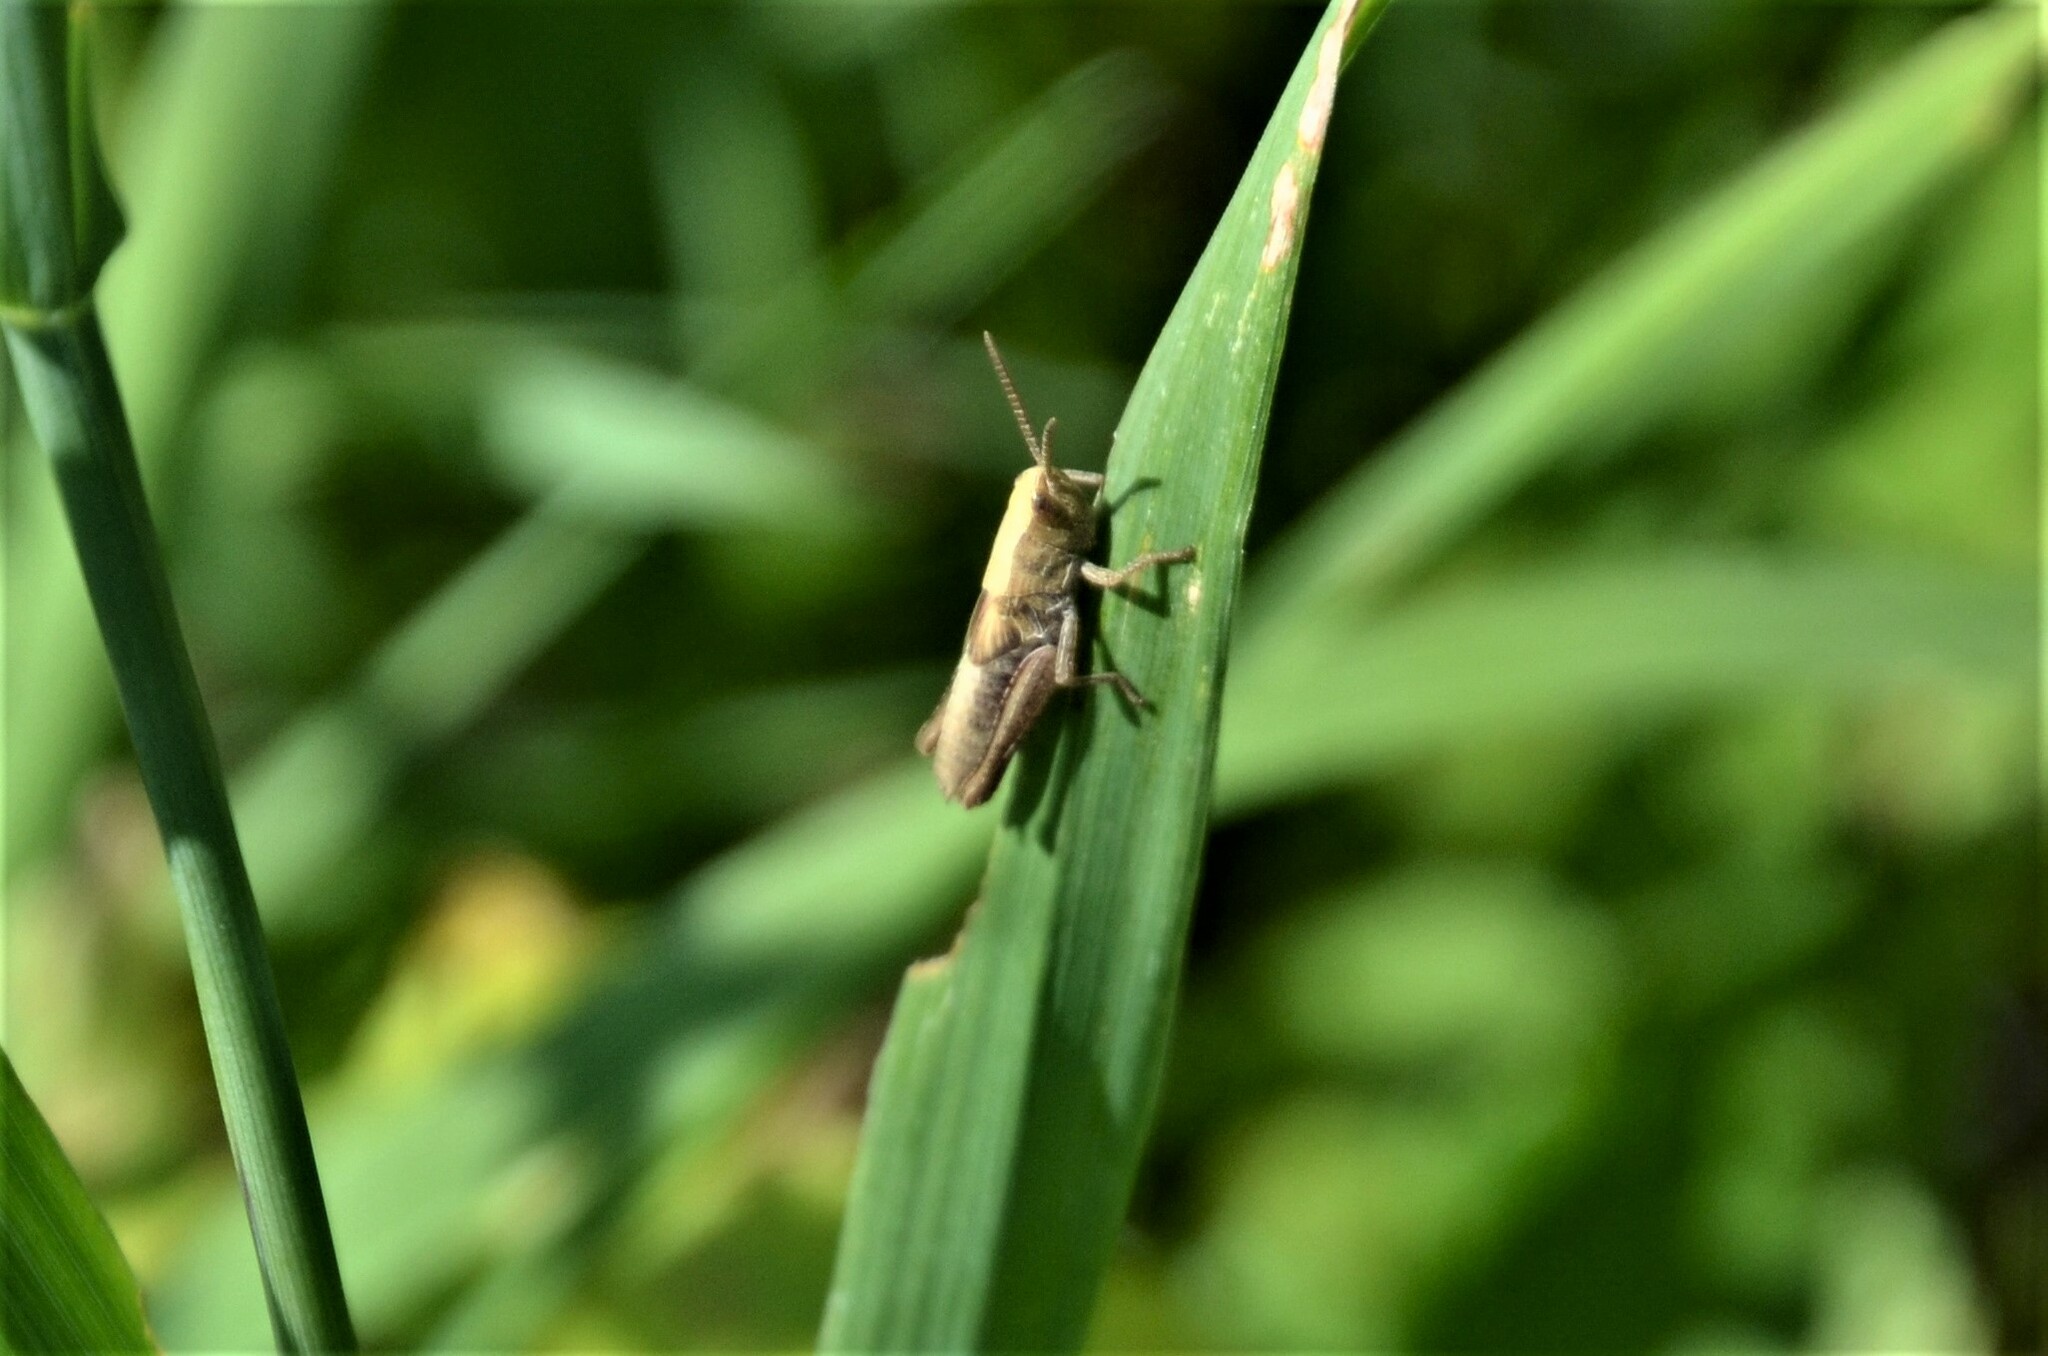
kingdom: Animalia
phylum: Arthropoda
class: Insecta
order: Orthoptera
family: Acrididae
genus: Chorthippus
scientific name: Chorthippus dorsatus
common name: Steppe grasshopper
